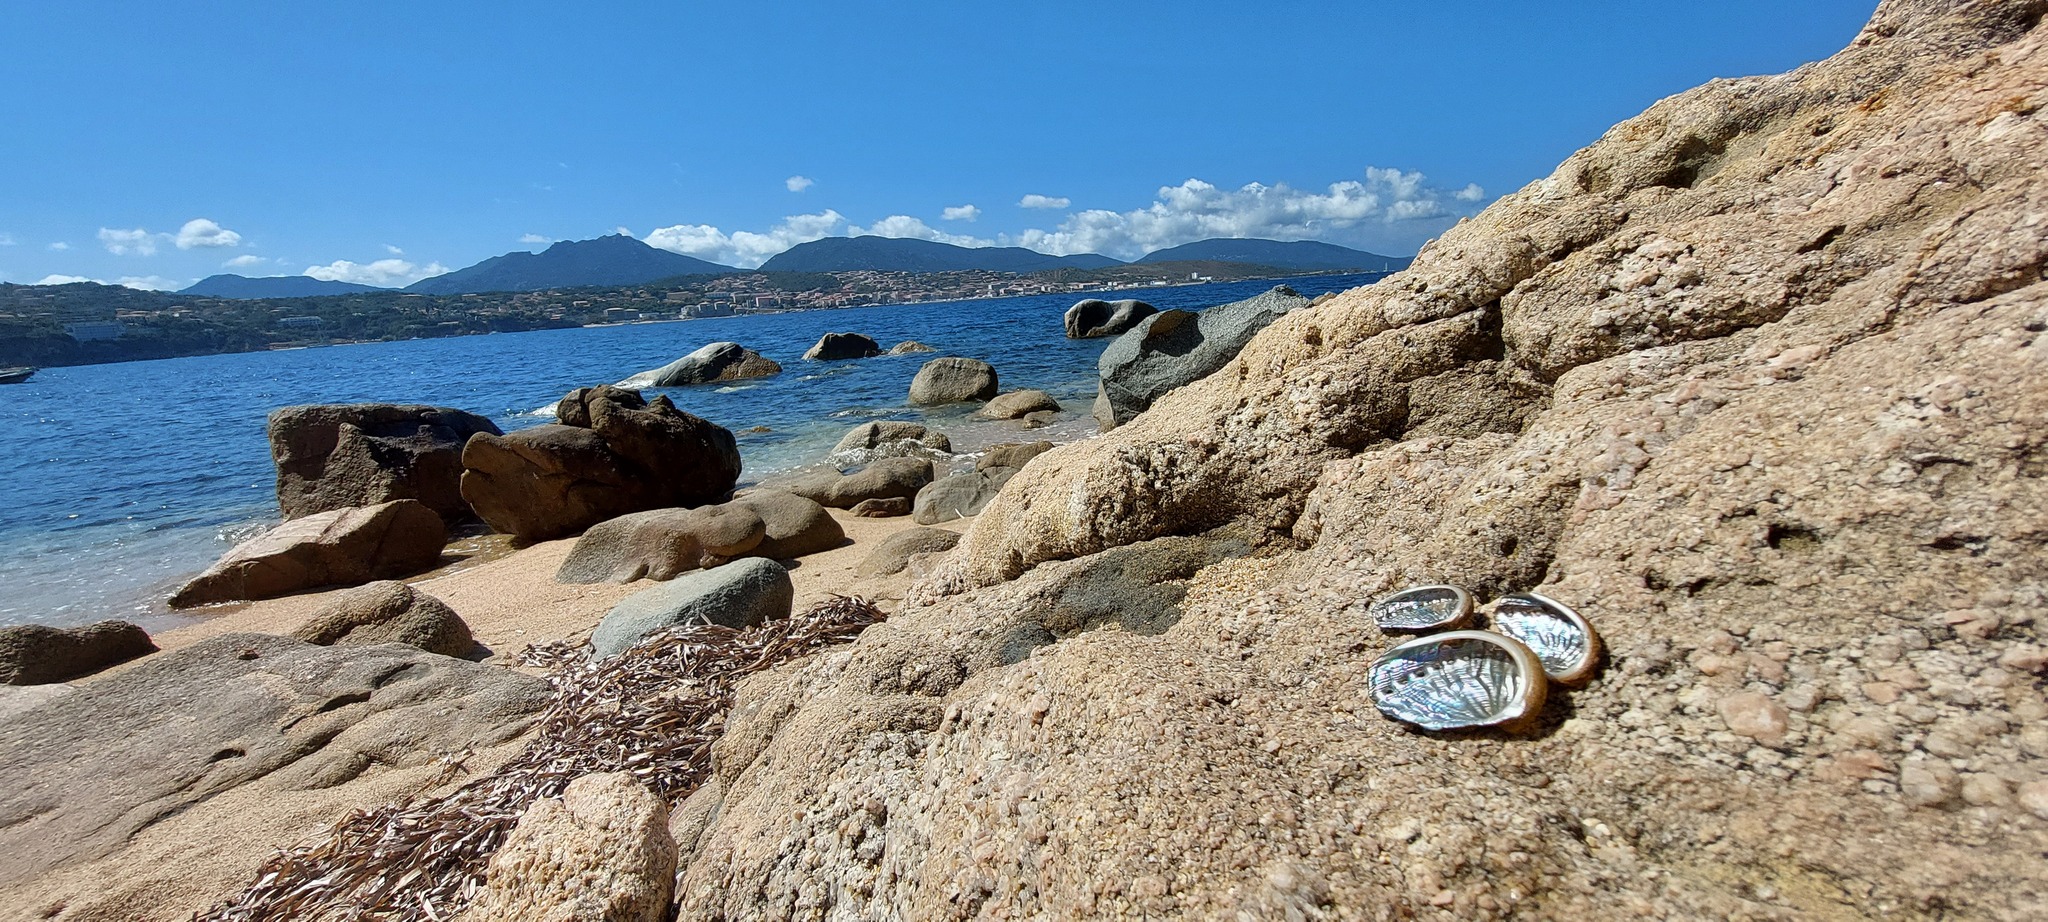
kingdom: Animalia
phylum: Mollusca
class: Gastropoda
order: Lepetellida
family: Haliotidae
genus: Haliotis
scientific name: Haliotis tuberculata
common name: Green ormer
